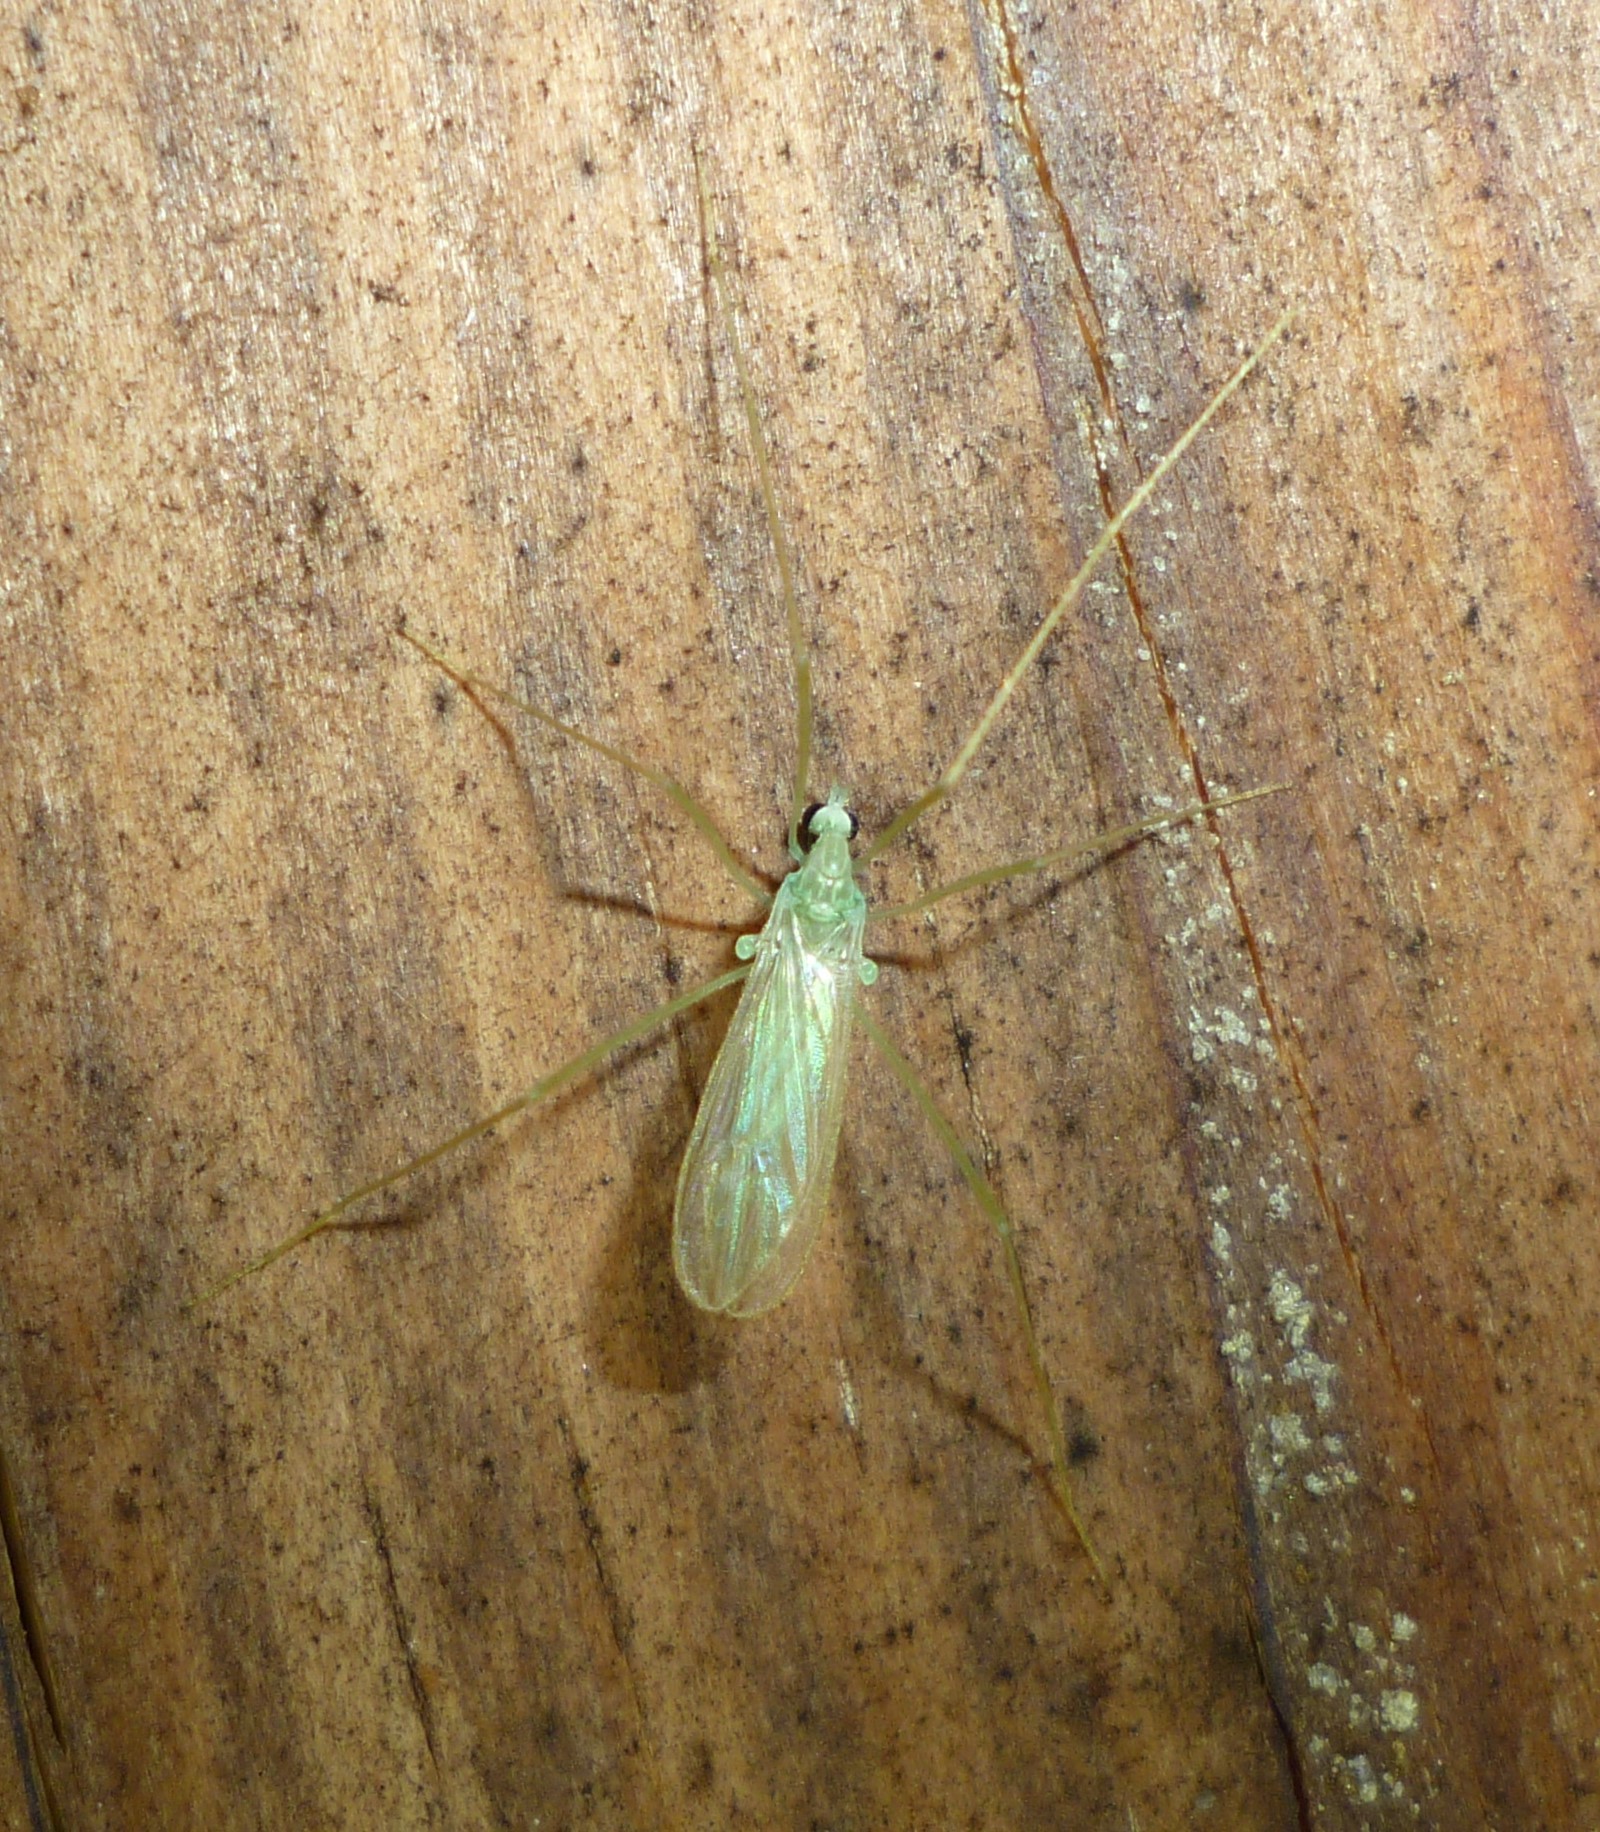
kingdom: Animalia
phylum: Arthropoda
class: Insecta
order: Diptera
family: Limoniidae
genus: Erioptera
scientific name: Erioptera
